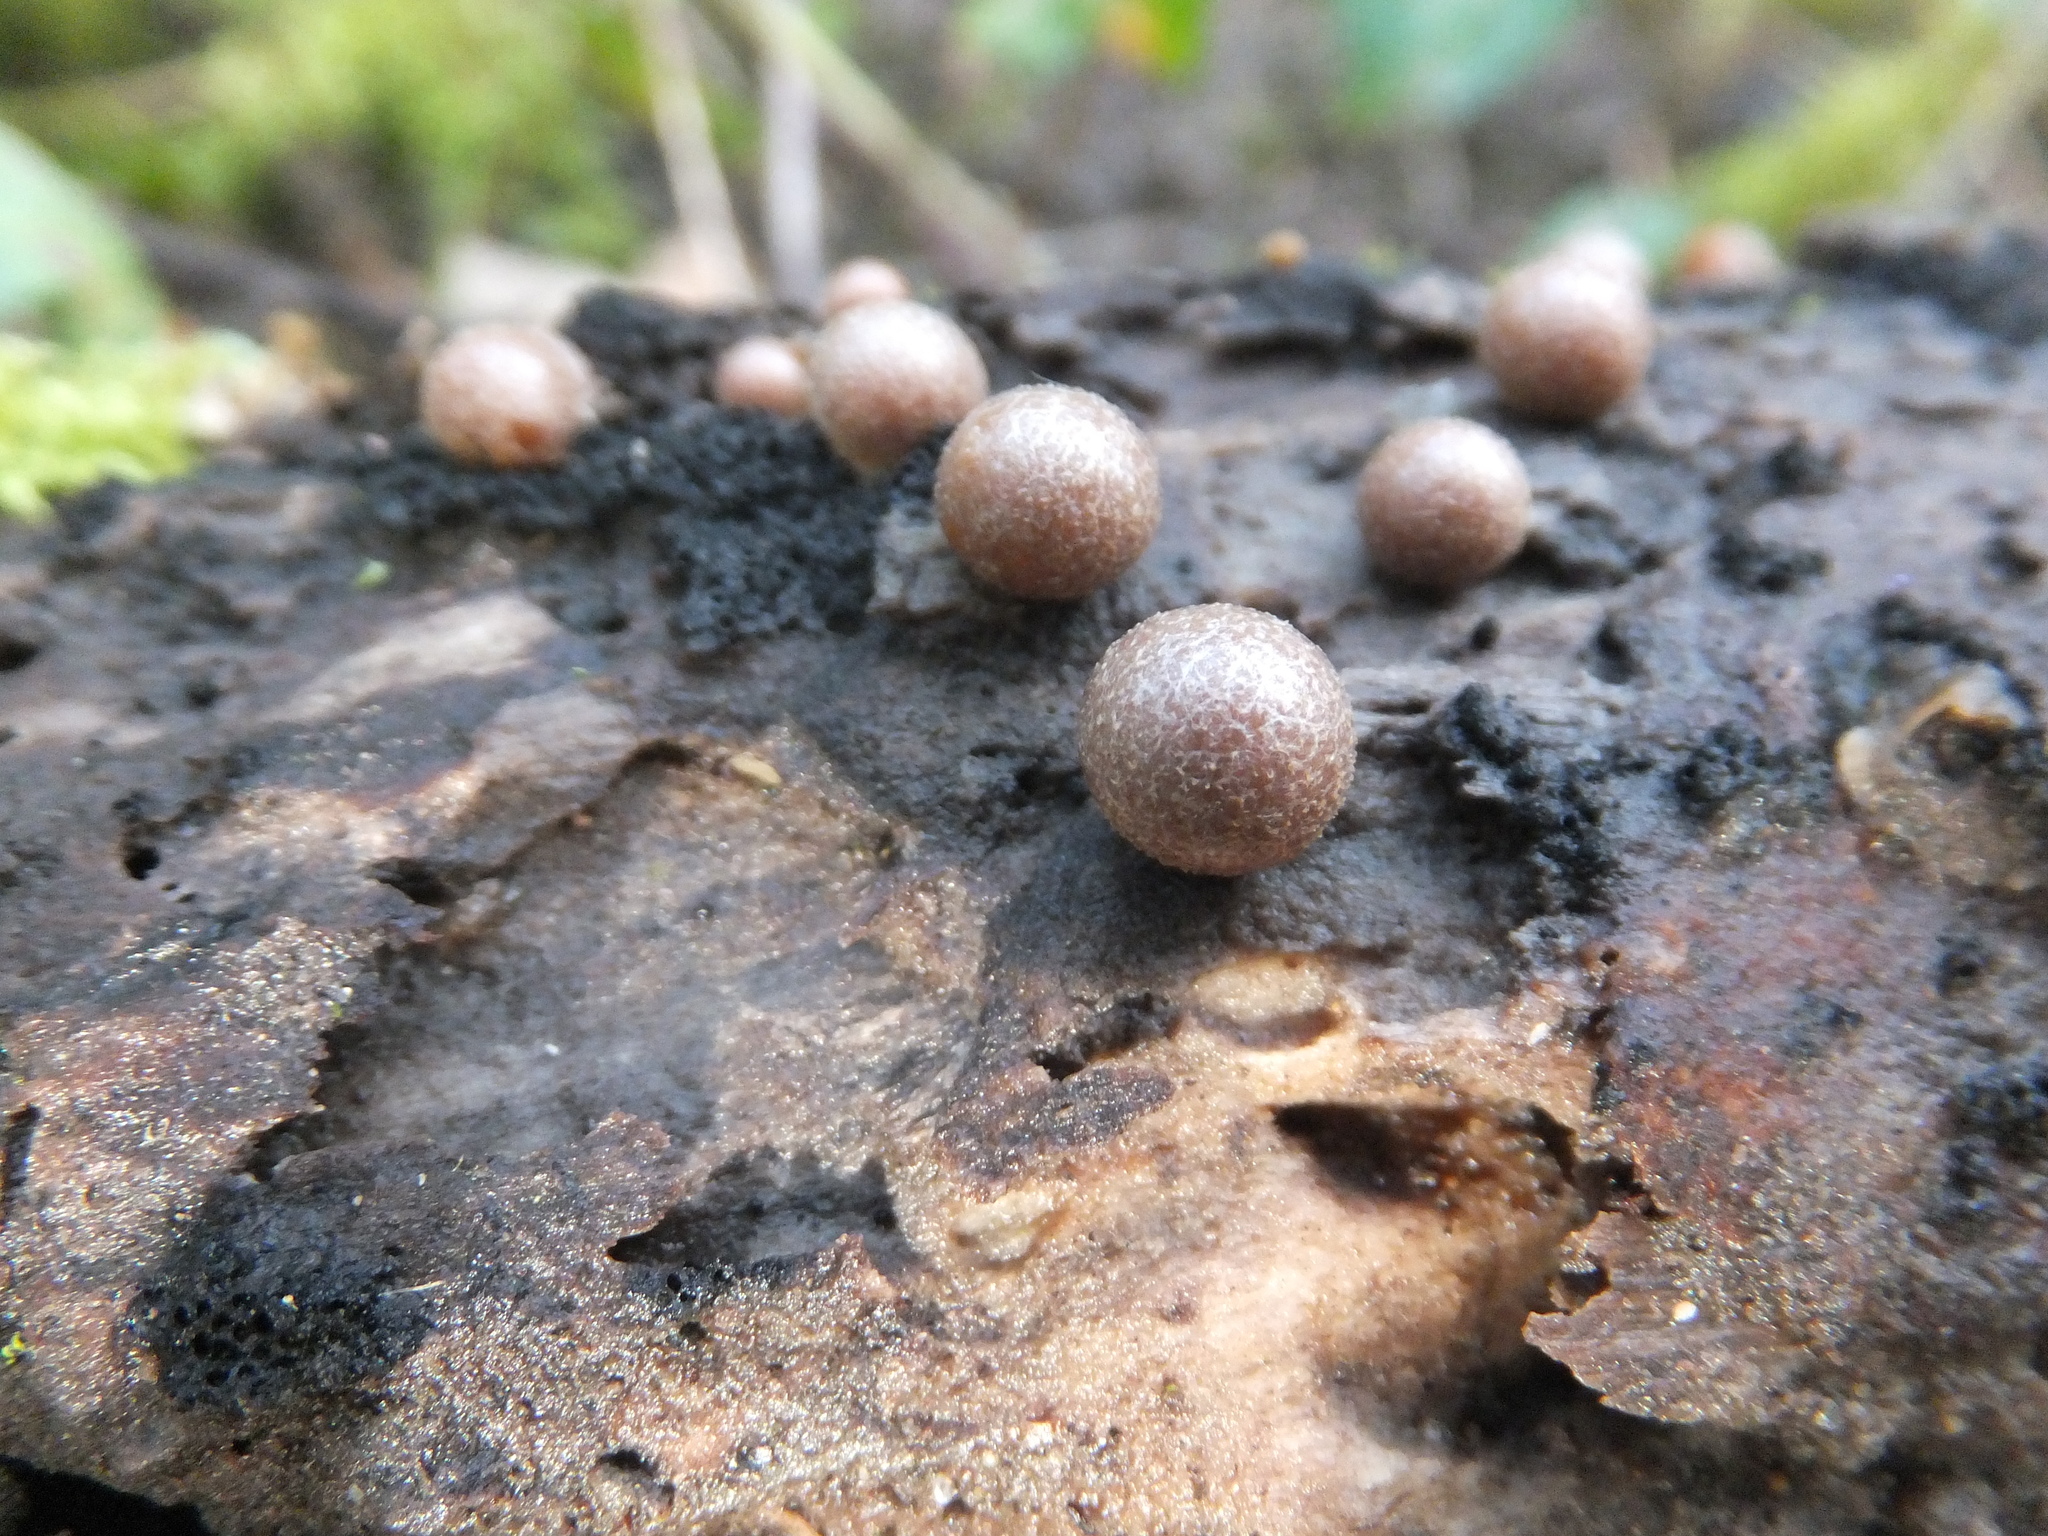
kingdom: Protozoa
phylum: Mycetozoa
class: Myxomycetes
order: Cribrariales
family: Tubiferaceae
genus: Lycogala
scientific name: Lycogala epidendrum
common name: Wolf's milk
